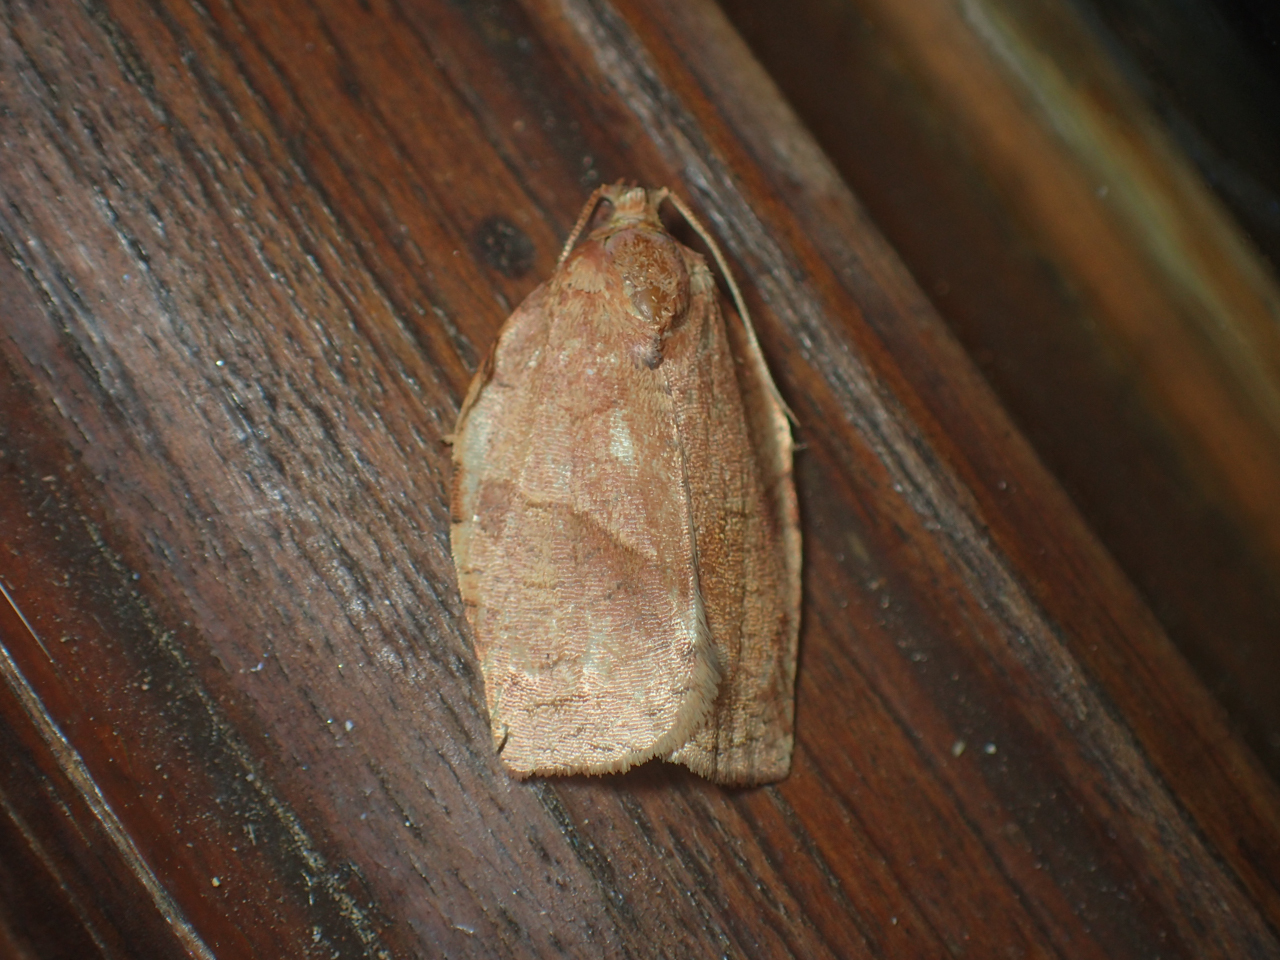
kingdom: Animalia
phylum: Arthropoda
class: Insecta
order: Lepidoptera
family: Tortricidae
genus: Choristoneura
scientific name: Choristoneura rosaceana
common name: Oblique-banded leafroller moth
